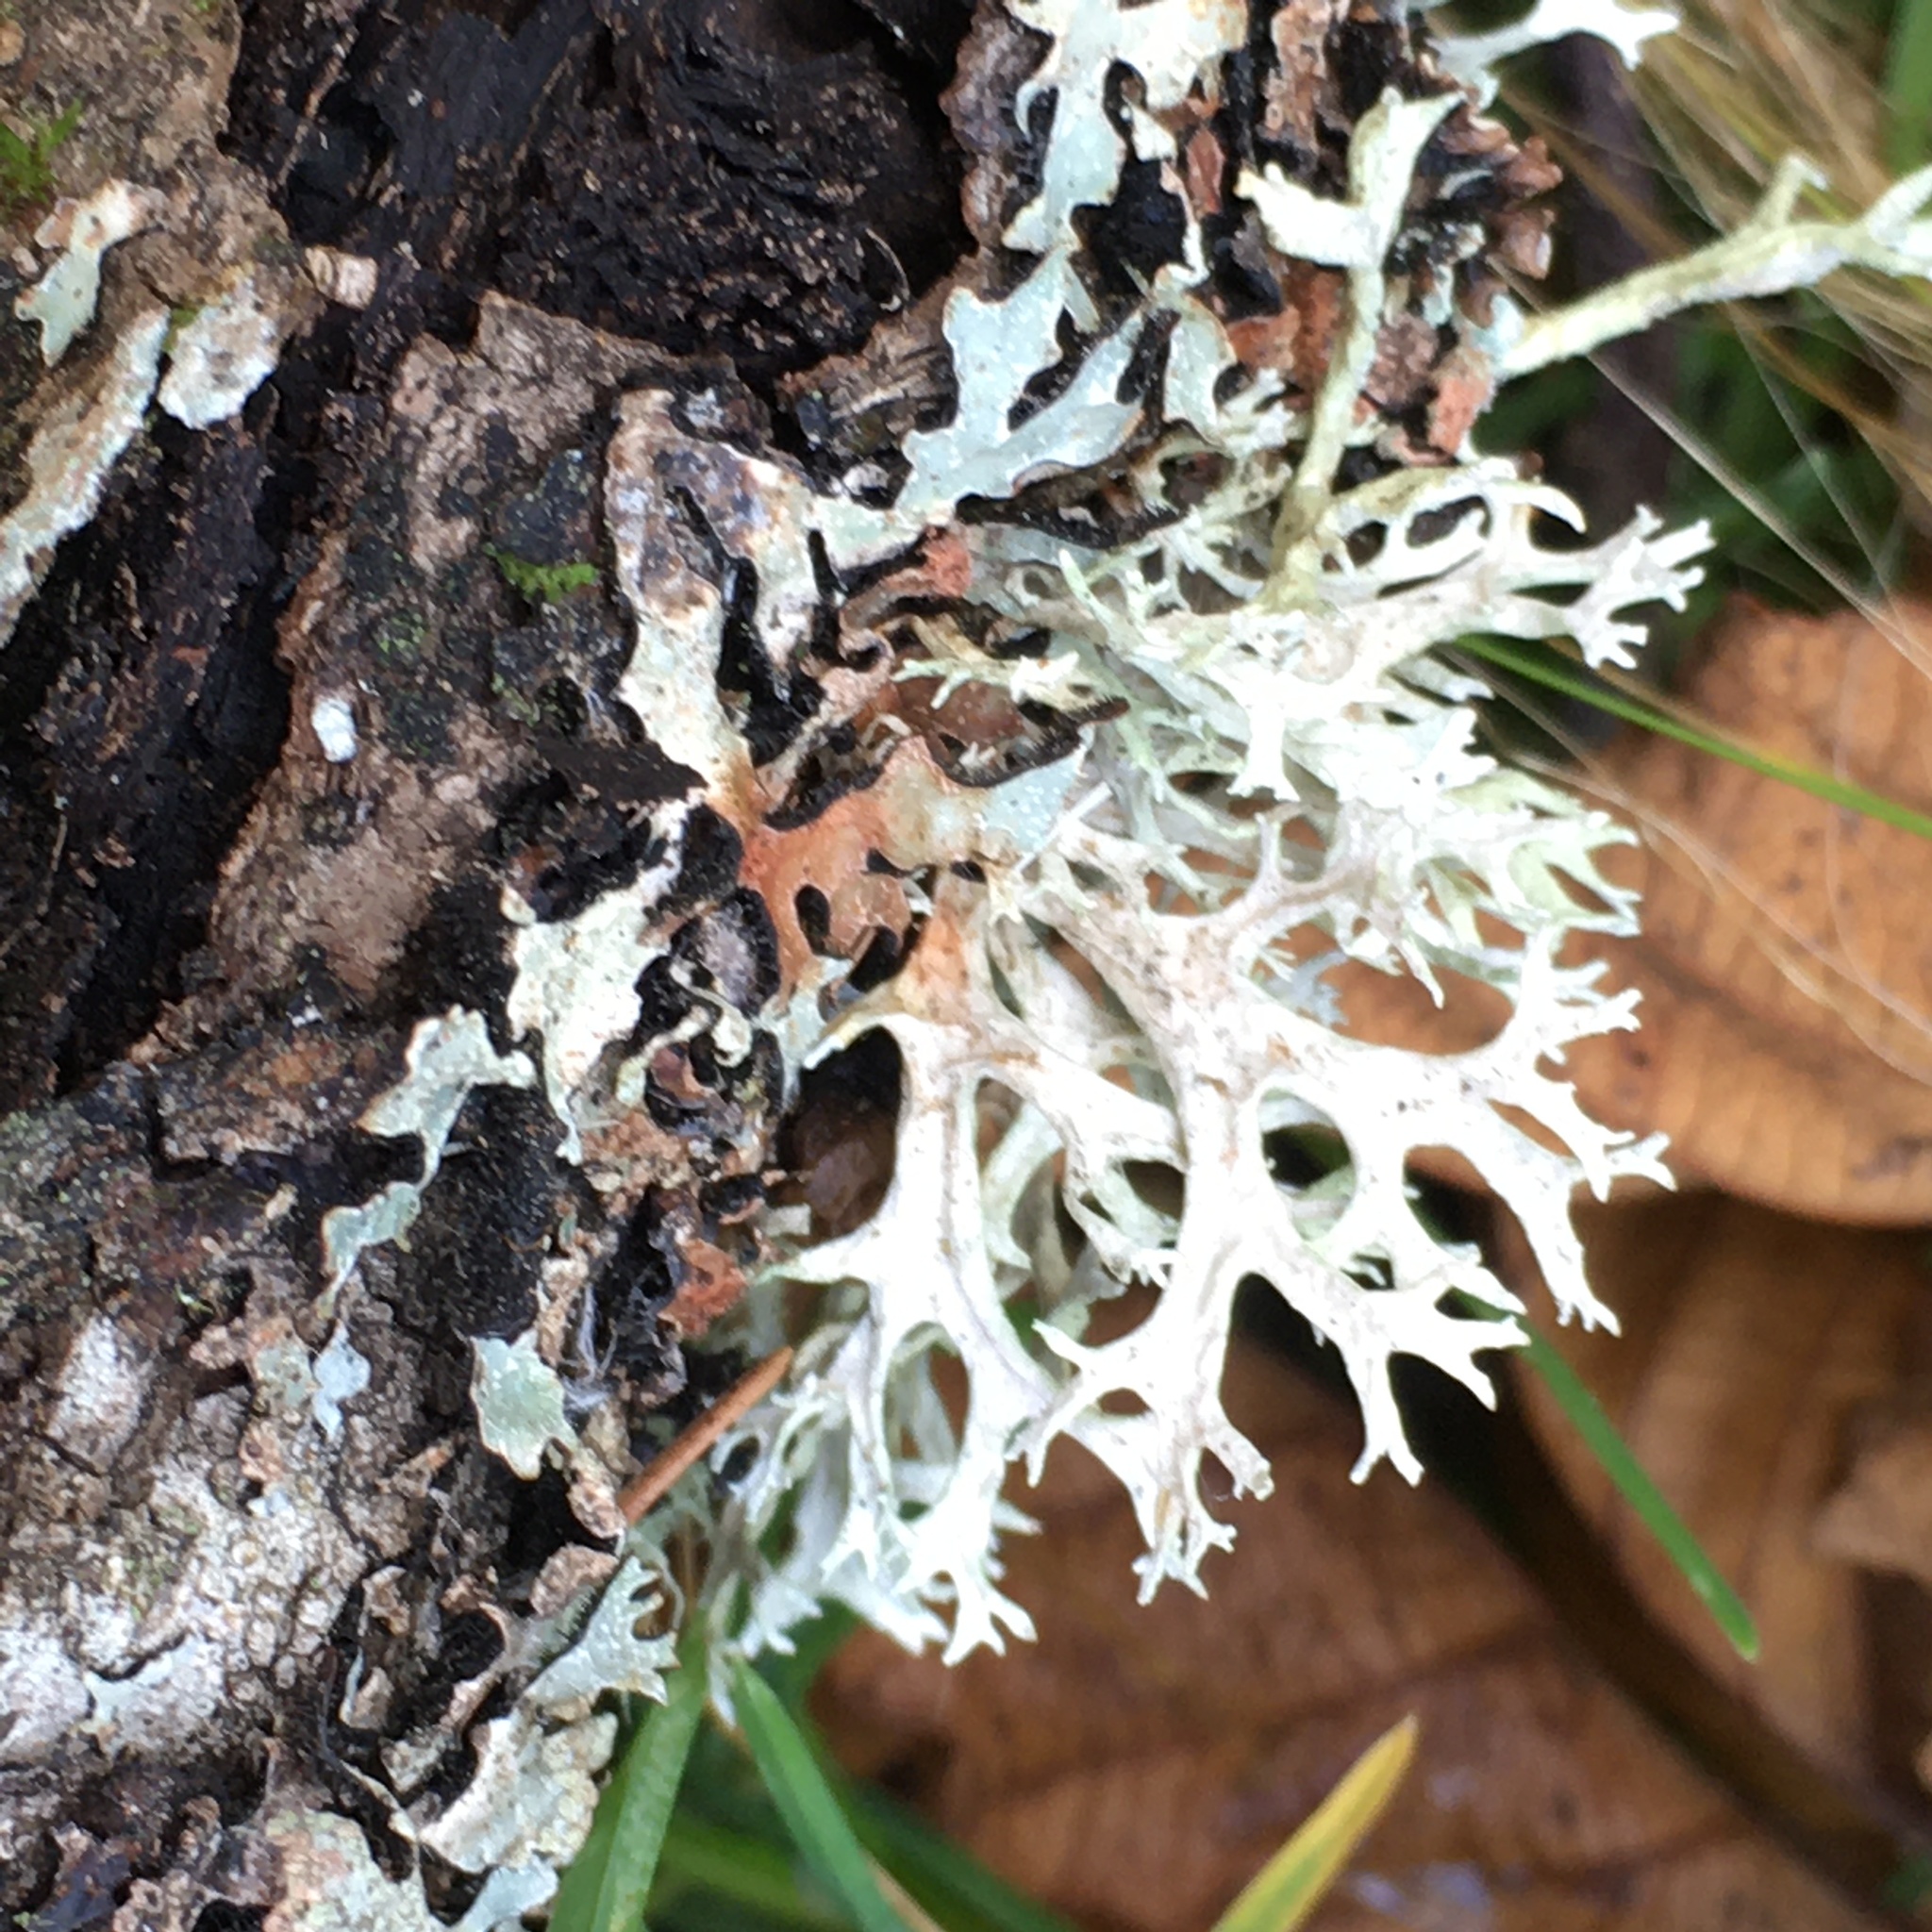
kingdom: Fungi
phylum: Ascomycota
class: Lecanoromycetes
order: Lecanorales
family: Parmeliaceae
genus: Evernia
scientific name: Evernia prunastri
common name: Oak moss
